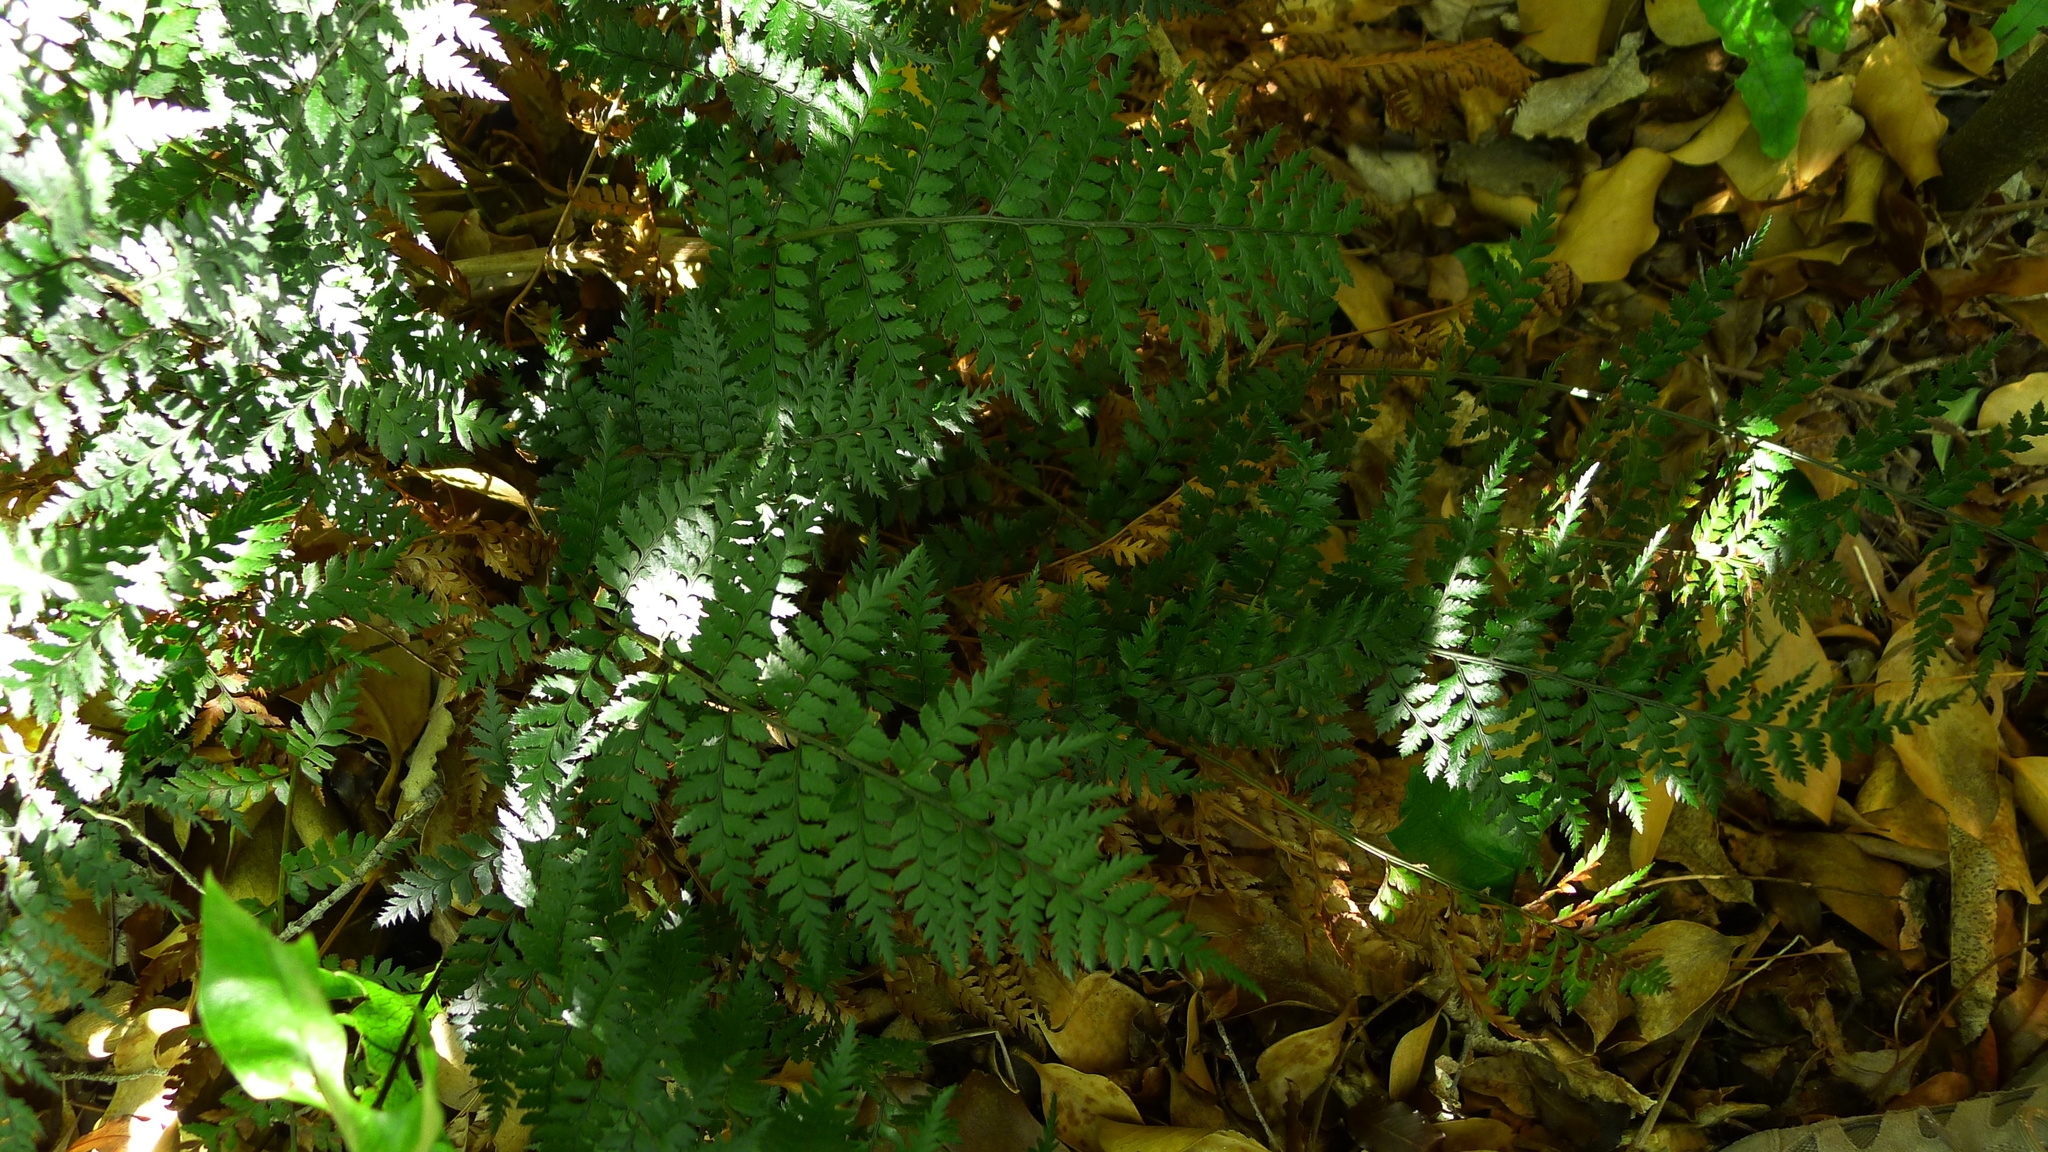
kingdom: Plantae
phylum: Tracheophyta
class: Polypodiopsida
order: Polypodiales
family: Dryopteridaceae
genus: Polystichum
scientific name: Polystichum neozelandicum
